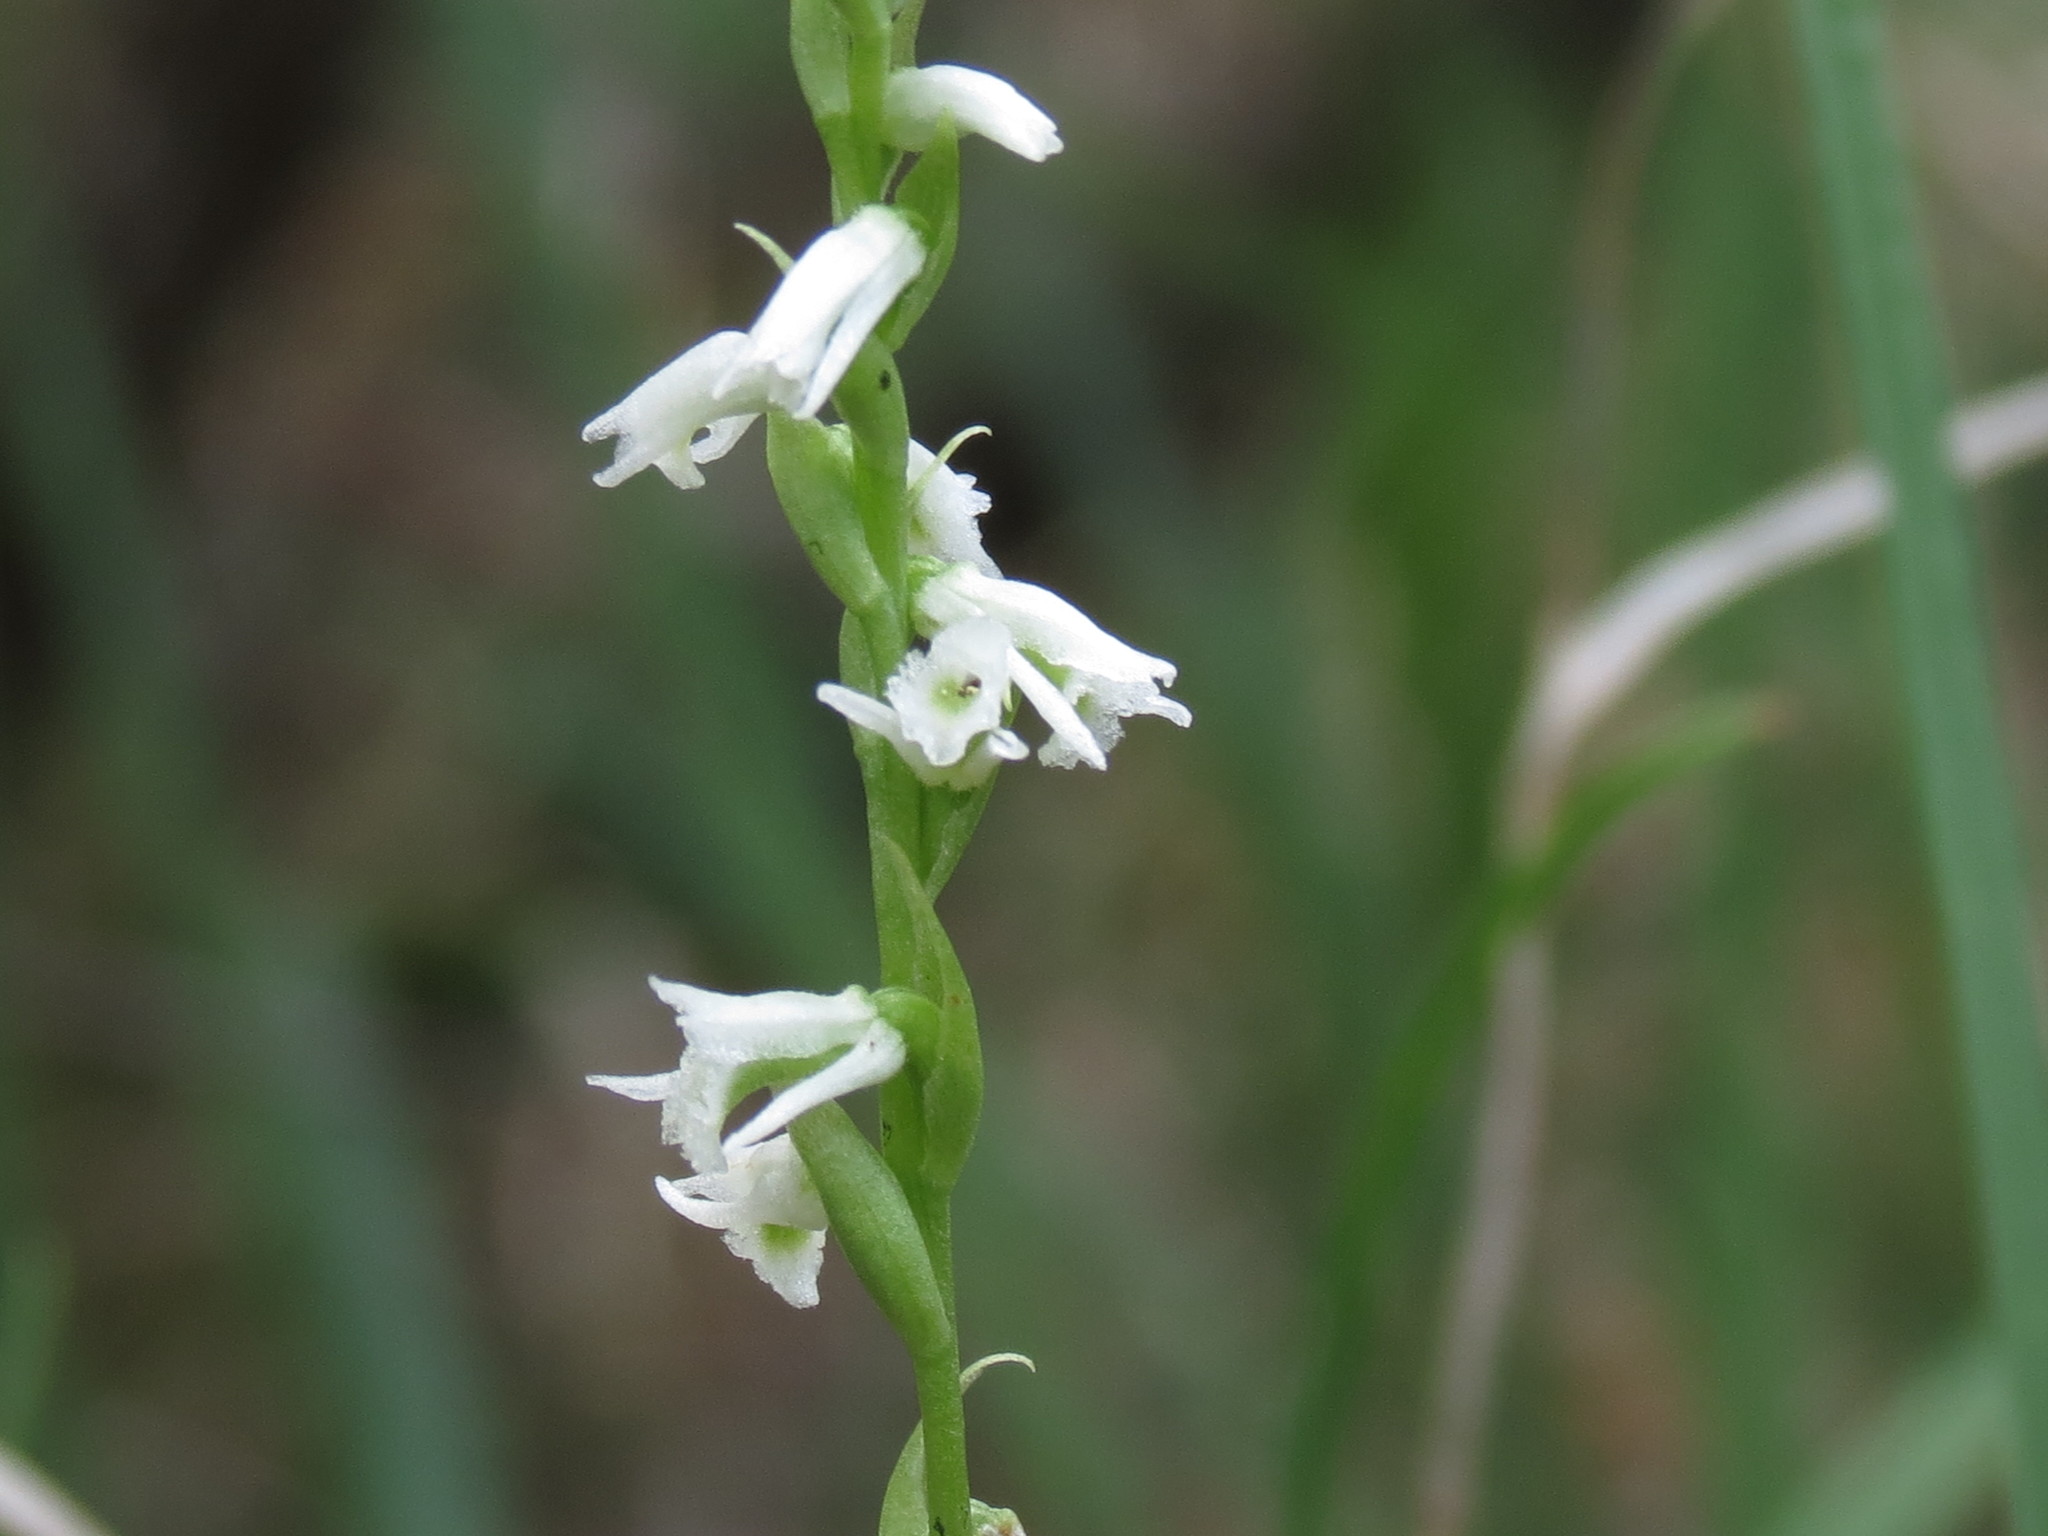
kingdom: Plantae
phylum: Tracheophyta
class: Liliopsida
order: Asparagales
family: Orchidaceae
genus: Spiranthes
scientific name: Spiranthes lacera
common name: Northern slender ladies'-tresses
